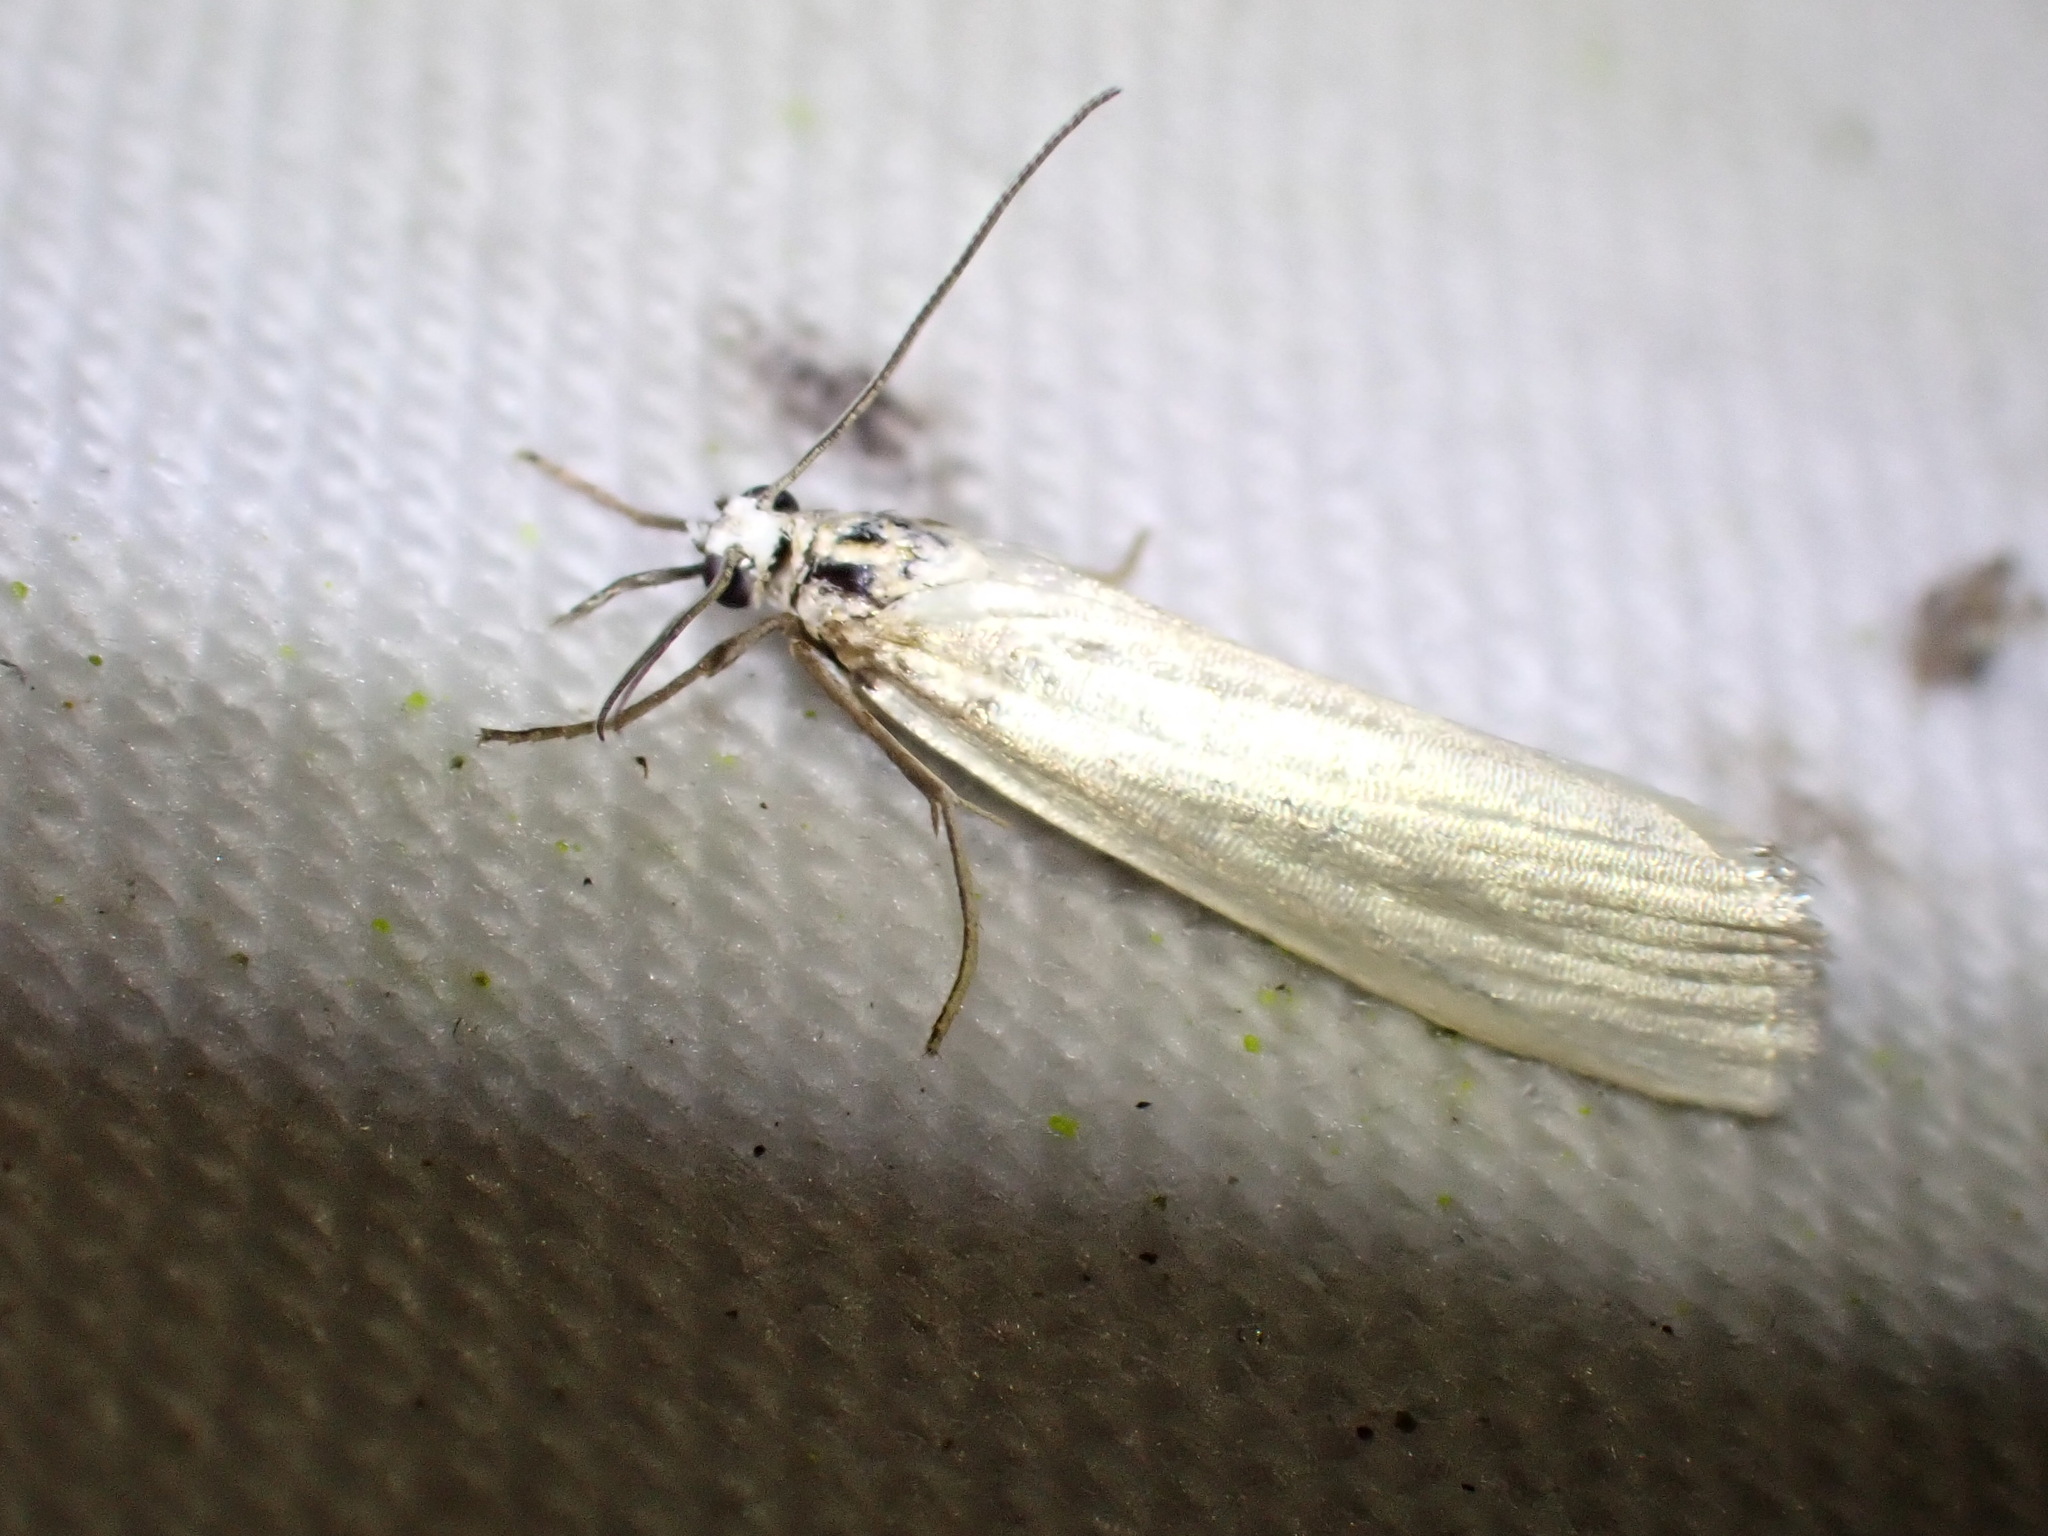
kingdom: Animalia
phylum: Arthropoda
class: Insecta
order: Lepidoptera
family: Crambidae
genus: Crambus
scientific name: Crambus perlellus
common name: Yellow satin veneer
